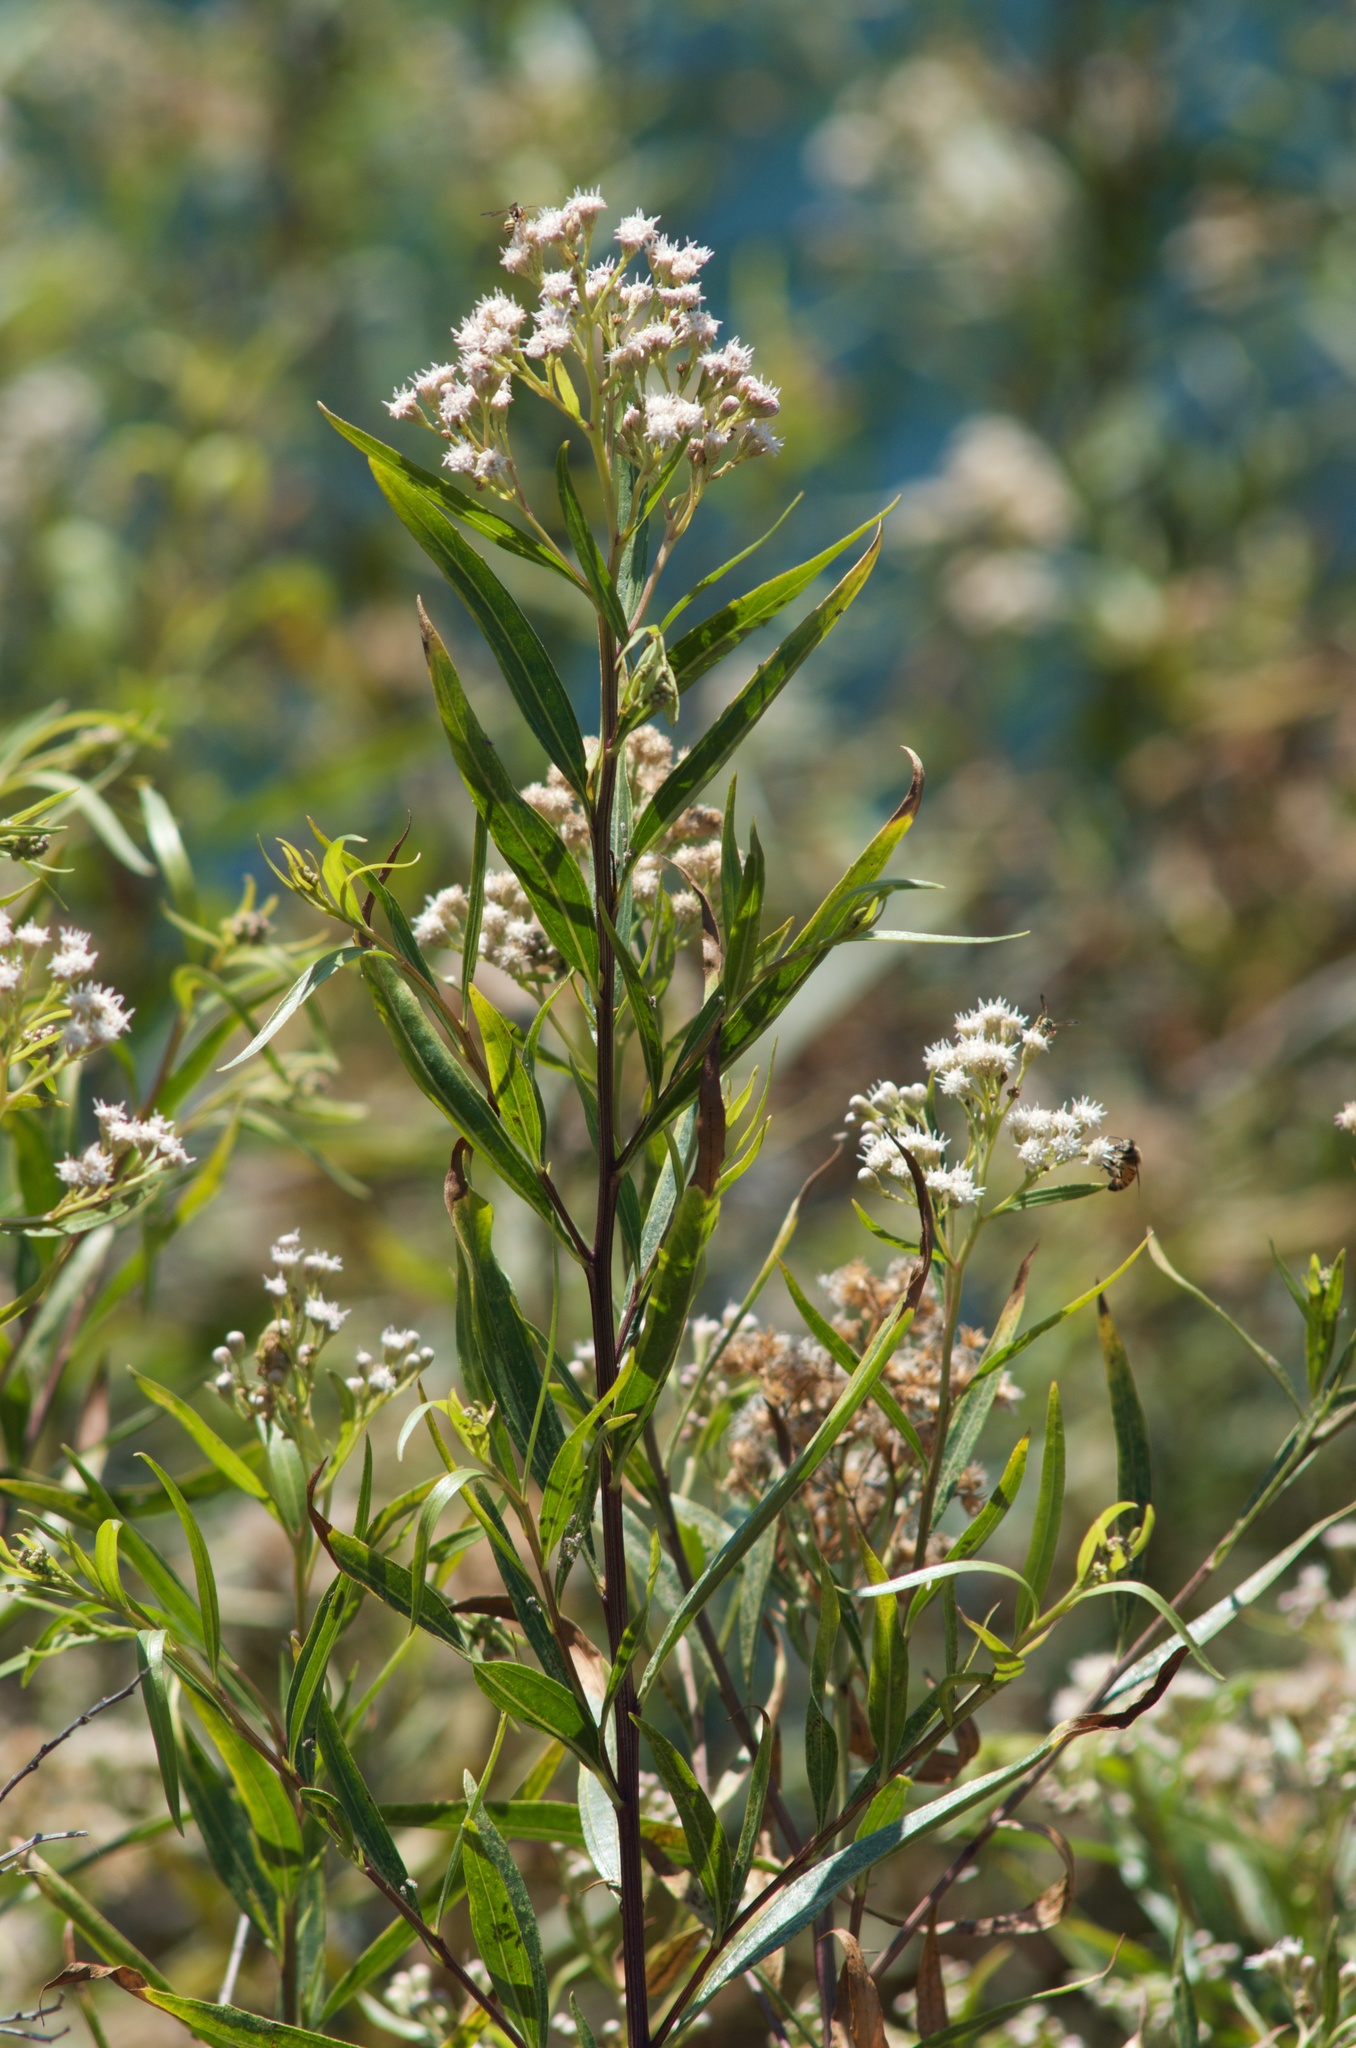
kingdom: Plantae
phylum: Tracheophyta
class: Magnoliopsida
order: Asterales
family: Asteraceae
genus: Baccharis
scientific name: Baccharis salicifolia
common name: Sticky baccharis
